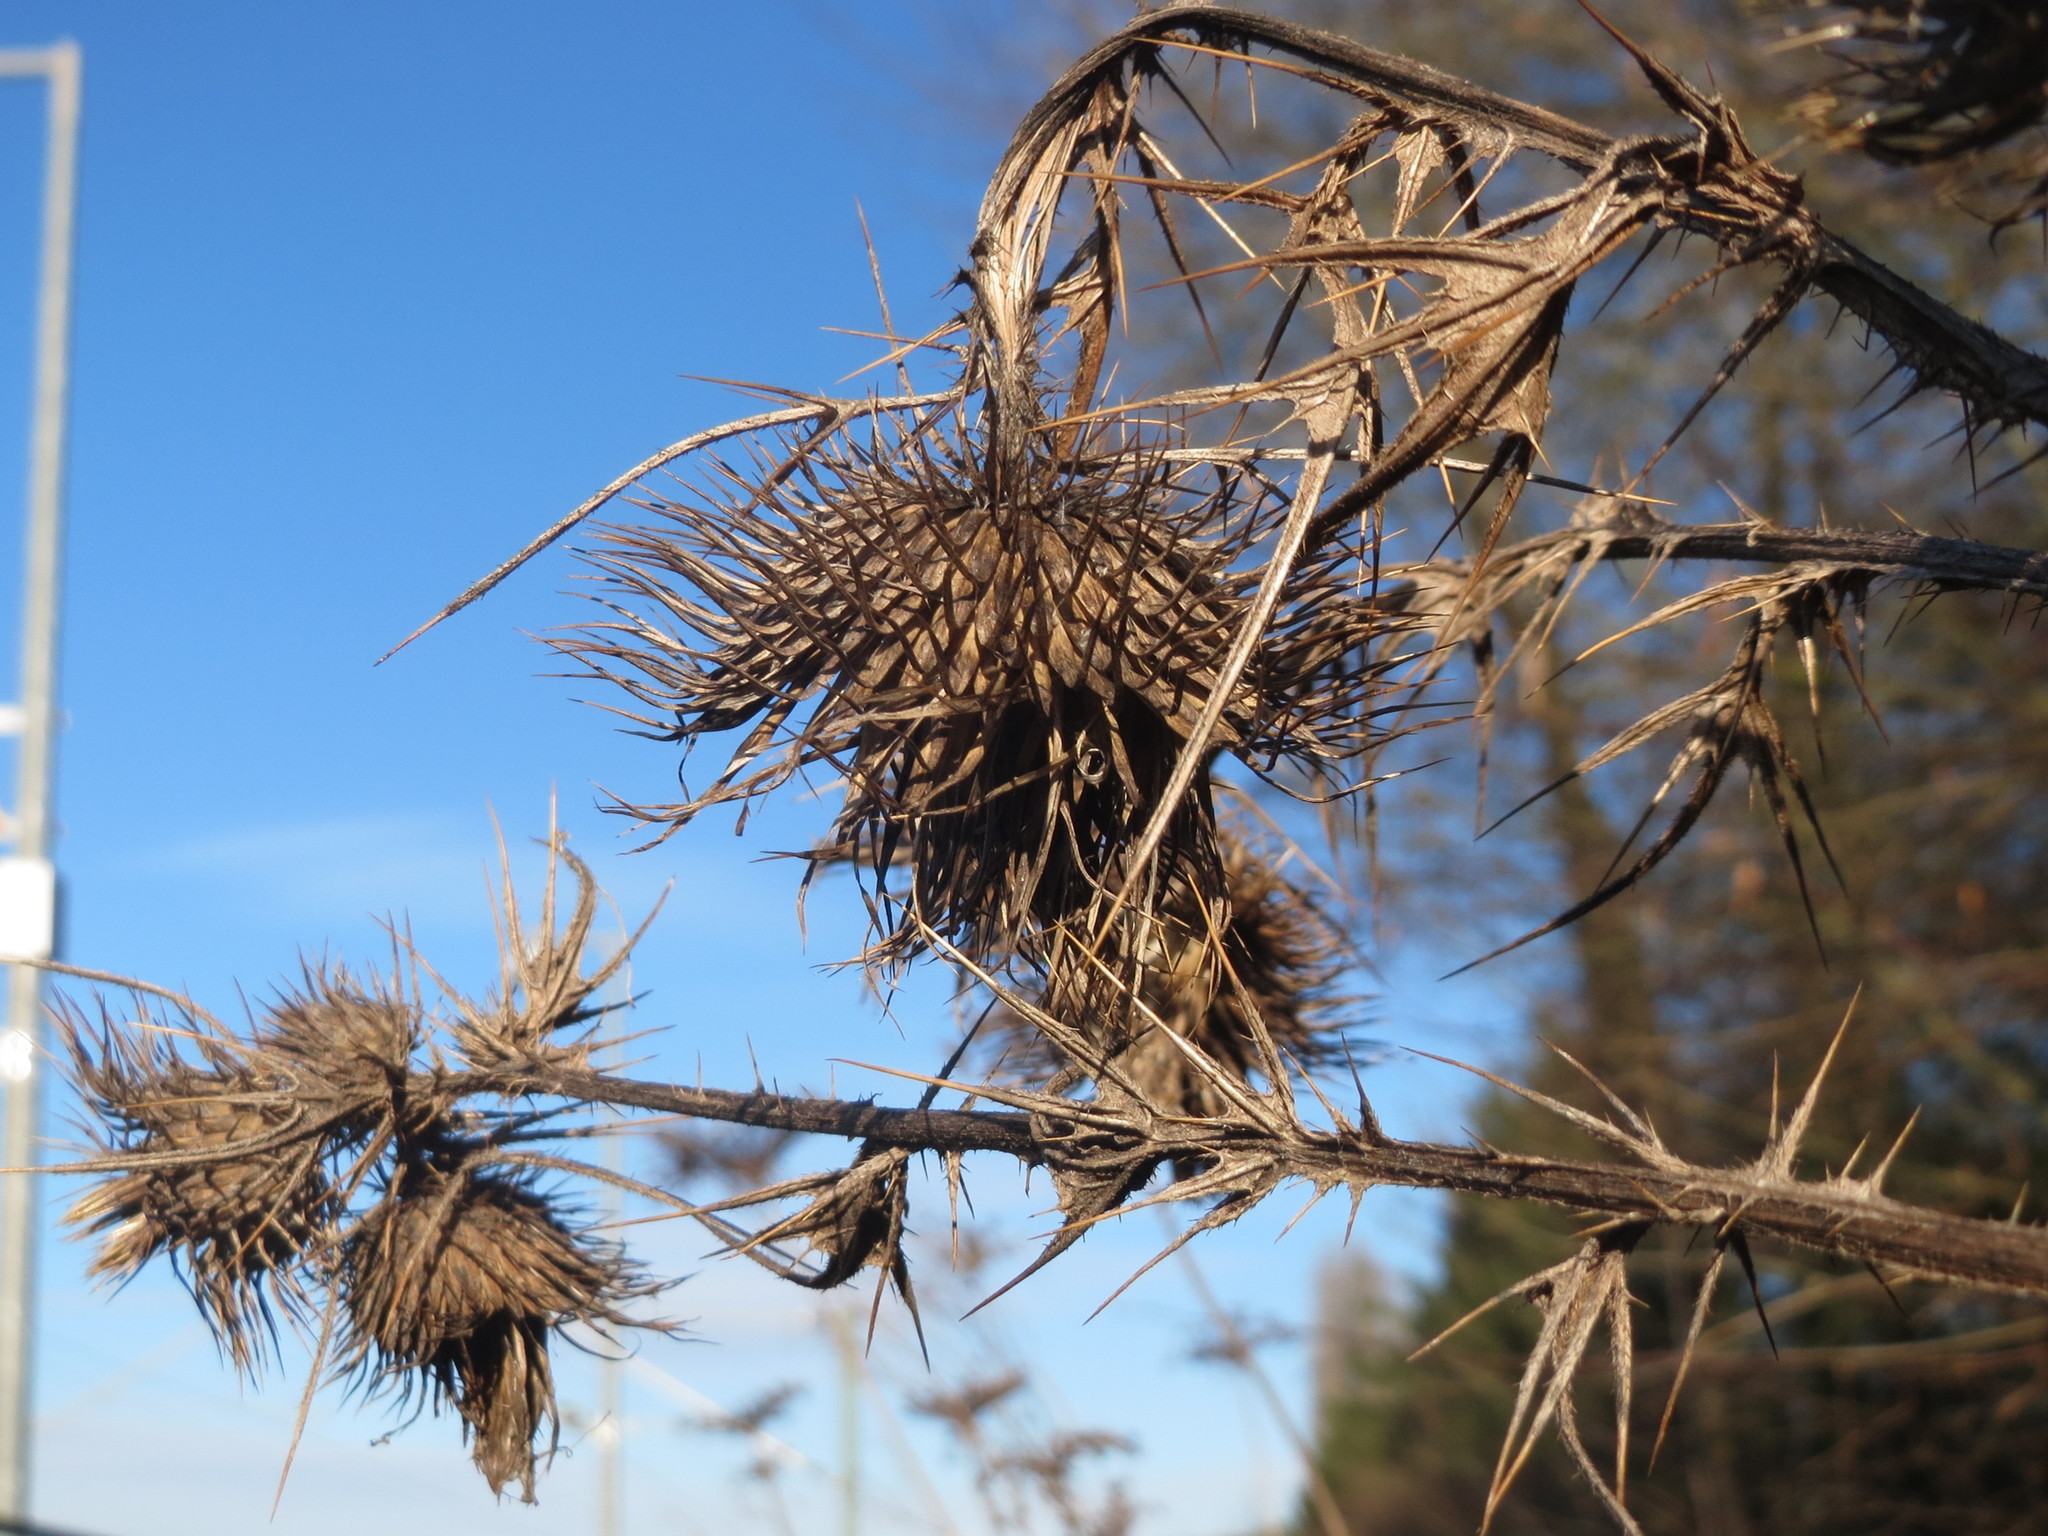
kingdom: Plantae
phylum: Tracheophyta
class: Magnoliopsida
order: Asterales
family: Asteraceae
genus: Cirsium
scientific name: Cirsium vulgare
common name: Bull thistle
